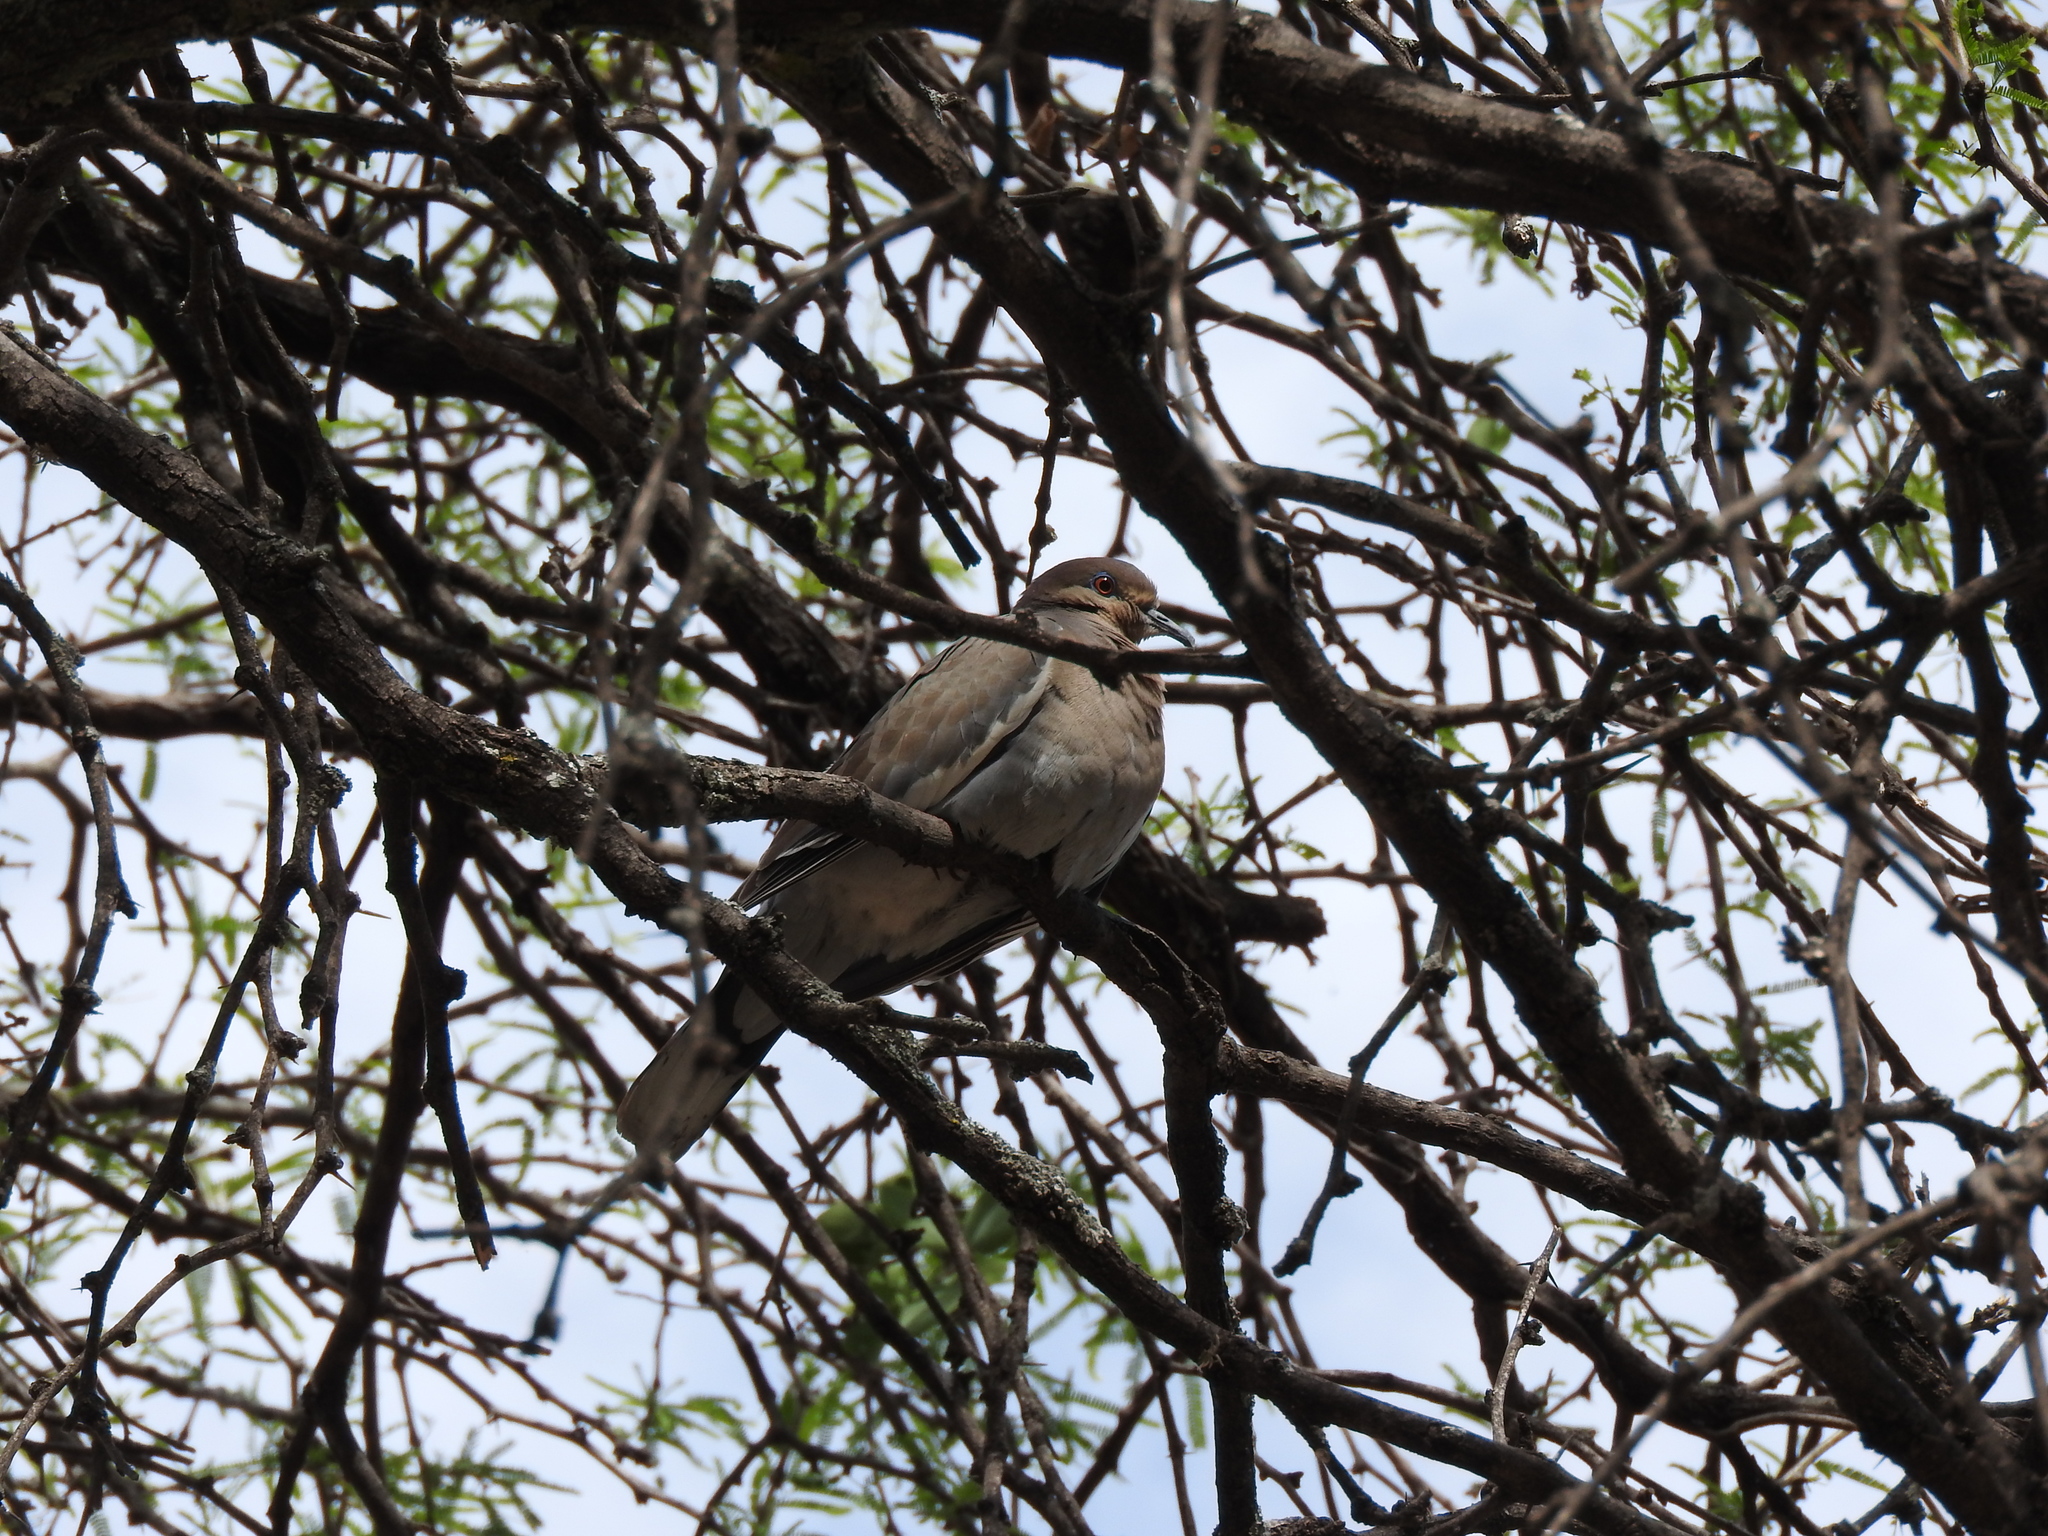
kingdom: Animalia
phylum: Chordata
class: Aves
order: Columbiformes
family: Columbidae
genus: Zenaida
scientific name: Zenaida asiatica
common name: White-winged dove
